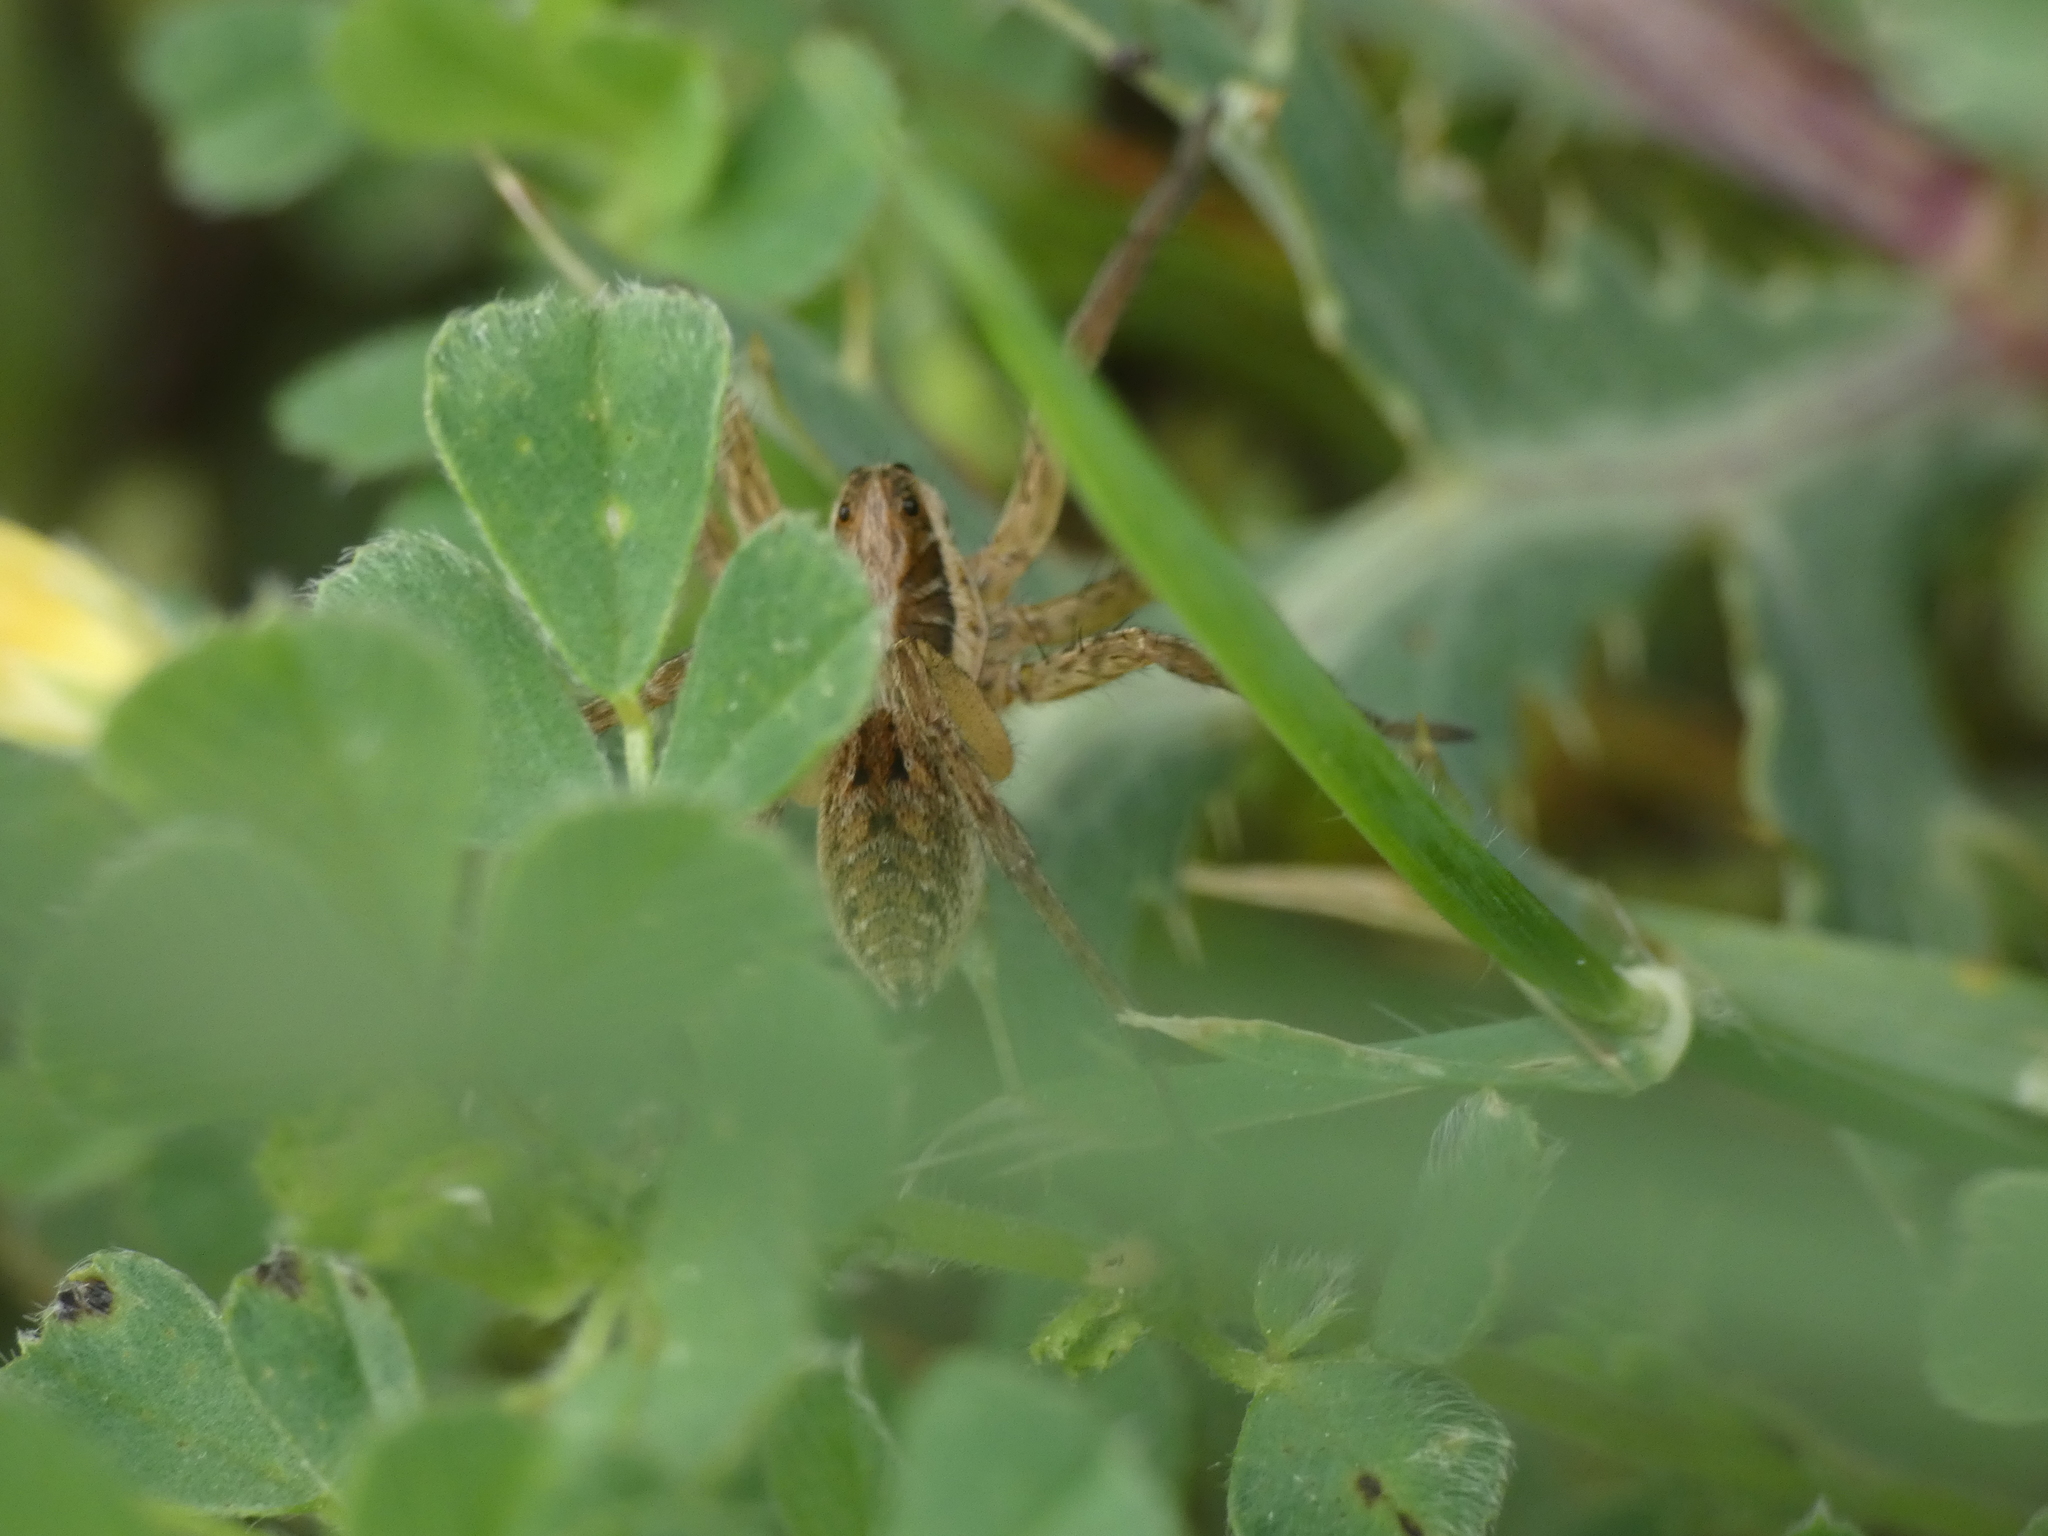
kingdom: Animalia
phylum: Arthropoda
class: Arachnida
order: Araneae
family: Lycosidae
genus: Hogna
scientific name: Hogna radiata
